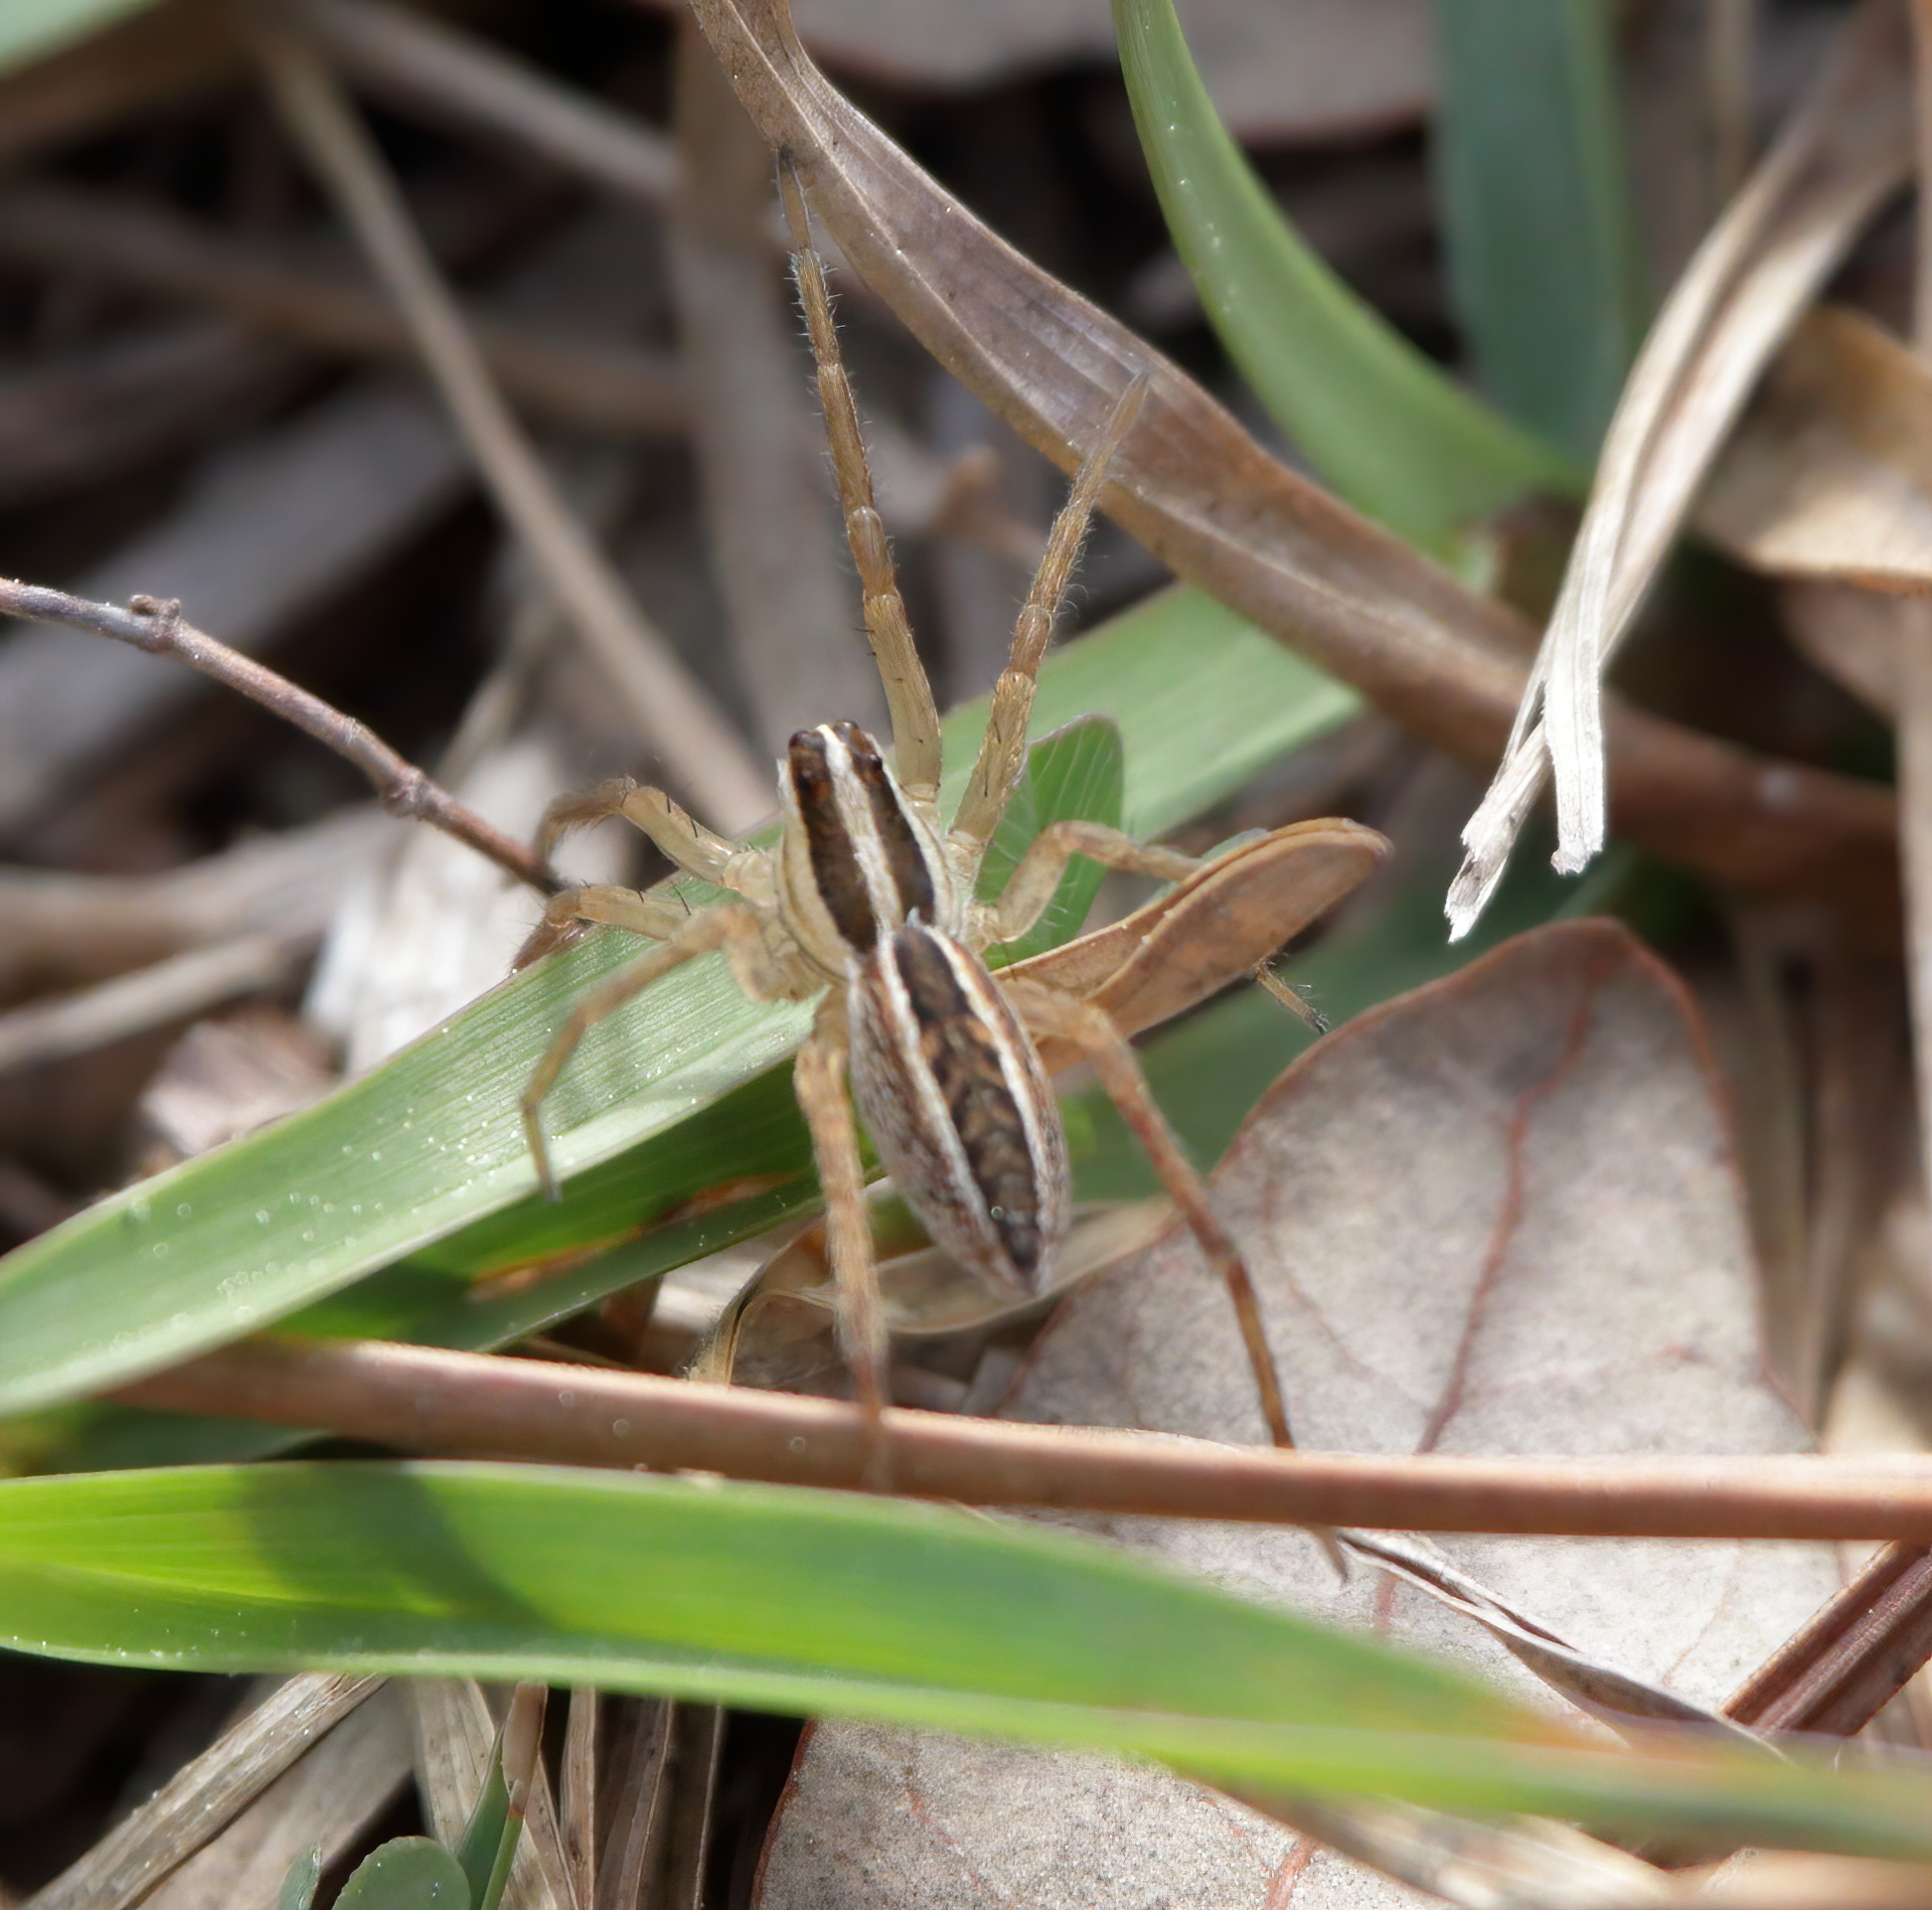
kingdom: Animalia
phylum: Arthropoda
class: Arachnida
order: Araneae
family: Lycosidae
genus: Rabidosa
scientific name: Rabidosa rabida
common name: Rabid wolf spider
